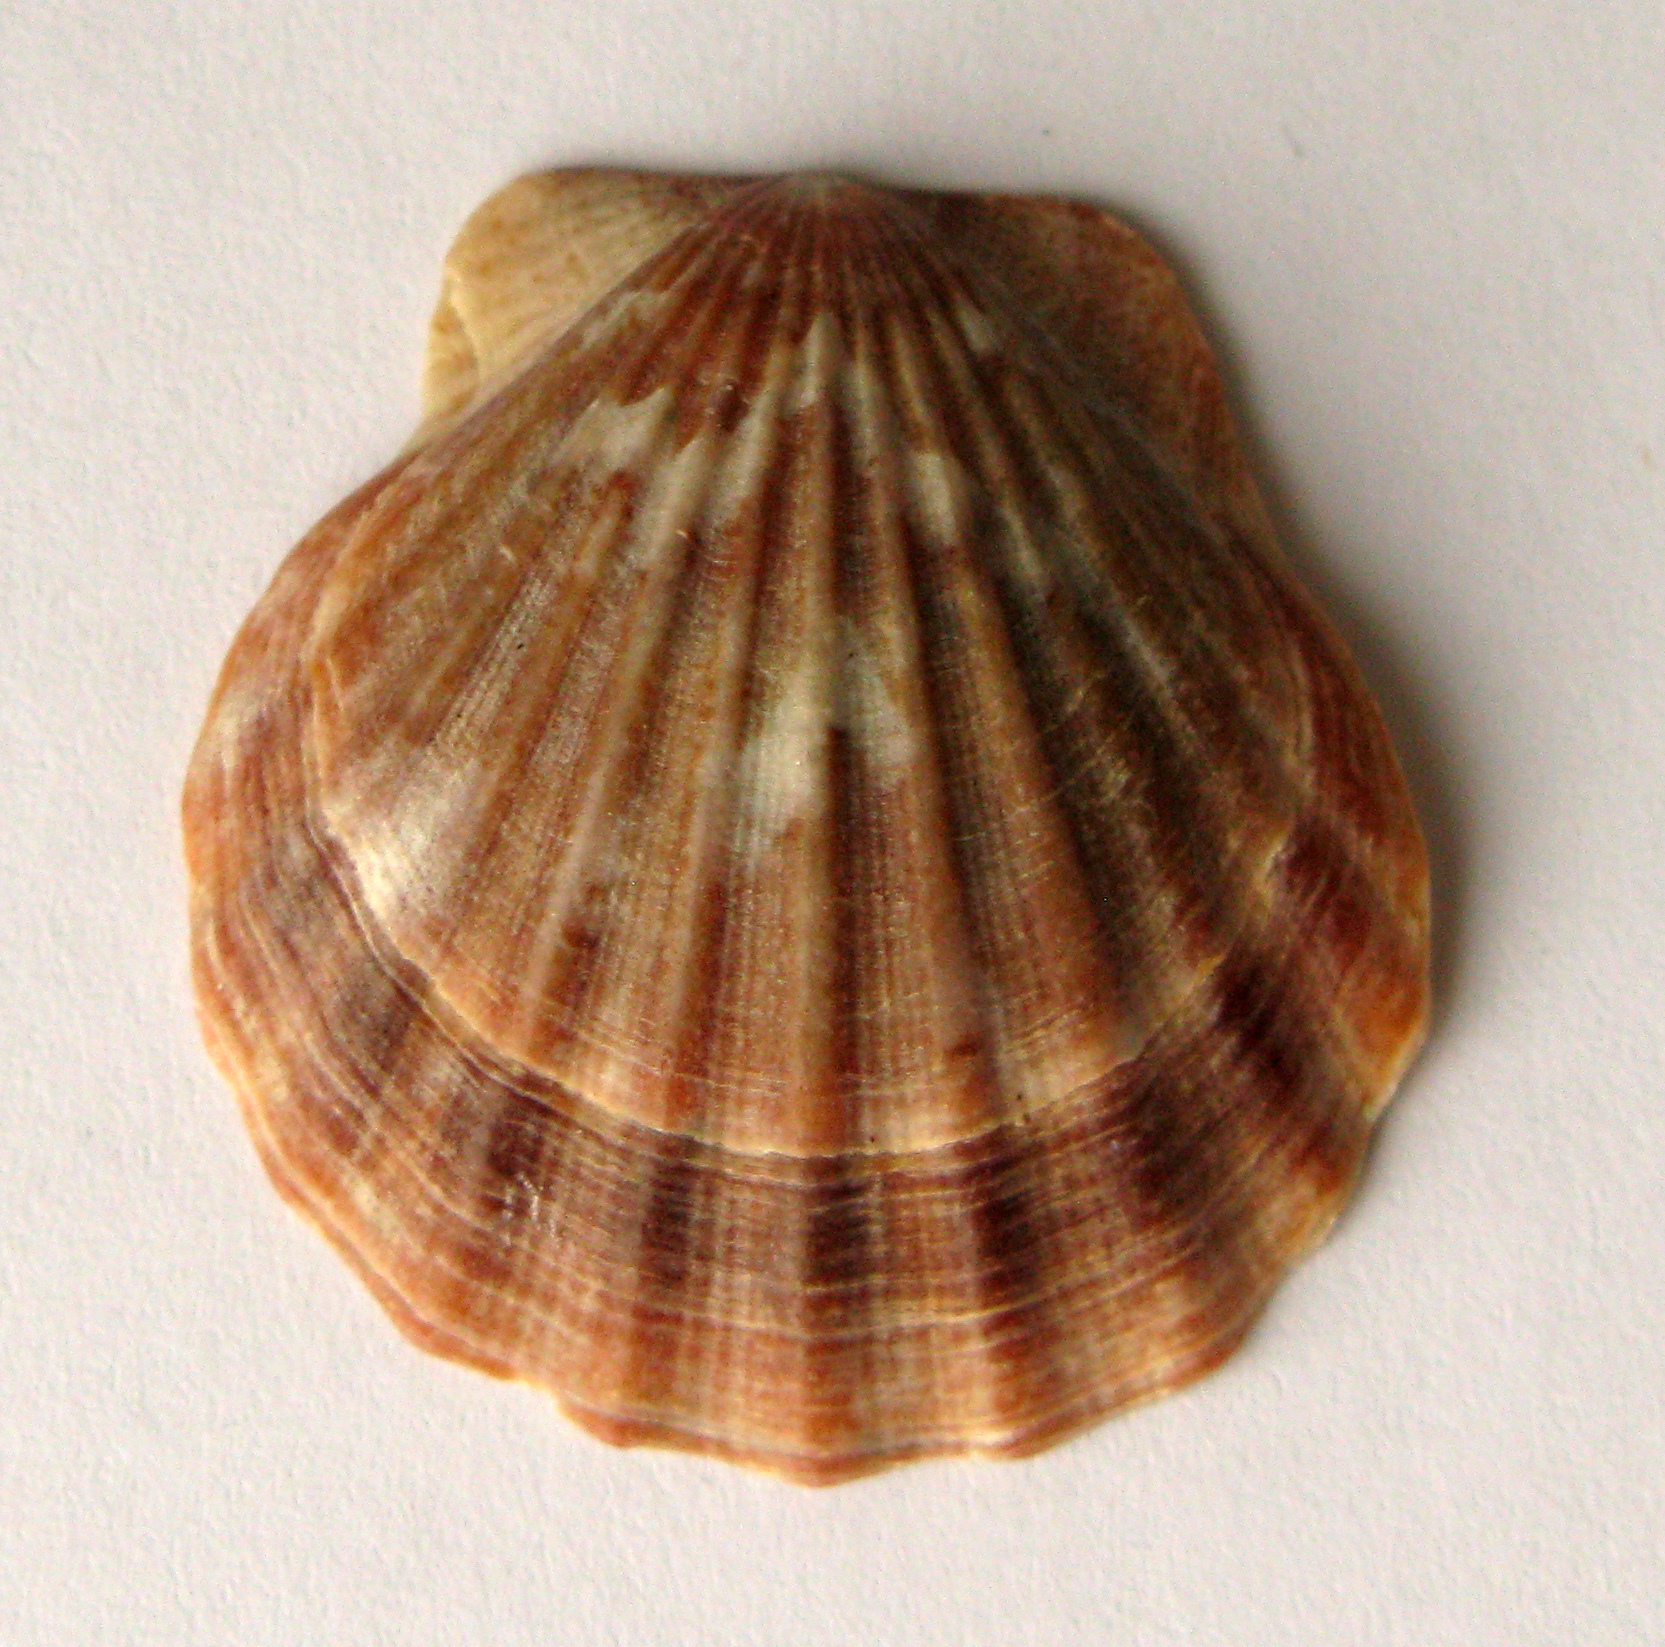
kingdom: Animalia
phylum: Mollusca
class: Bivalvia
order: Pectinida
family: Pectinidae
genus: Flexopecten
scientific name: Flexopecten glaber
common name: Smooth scallop
